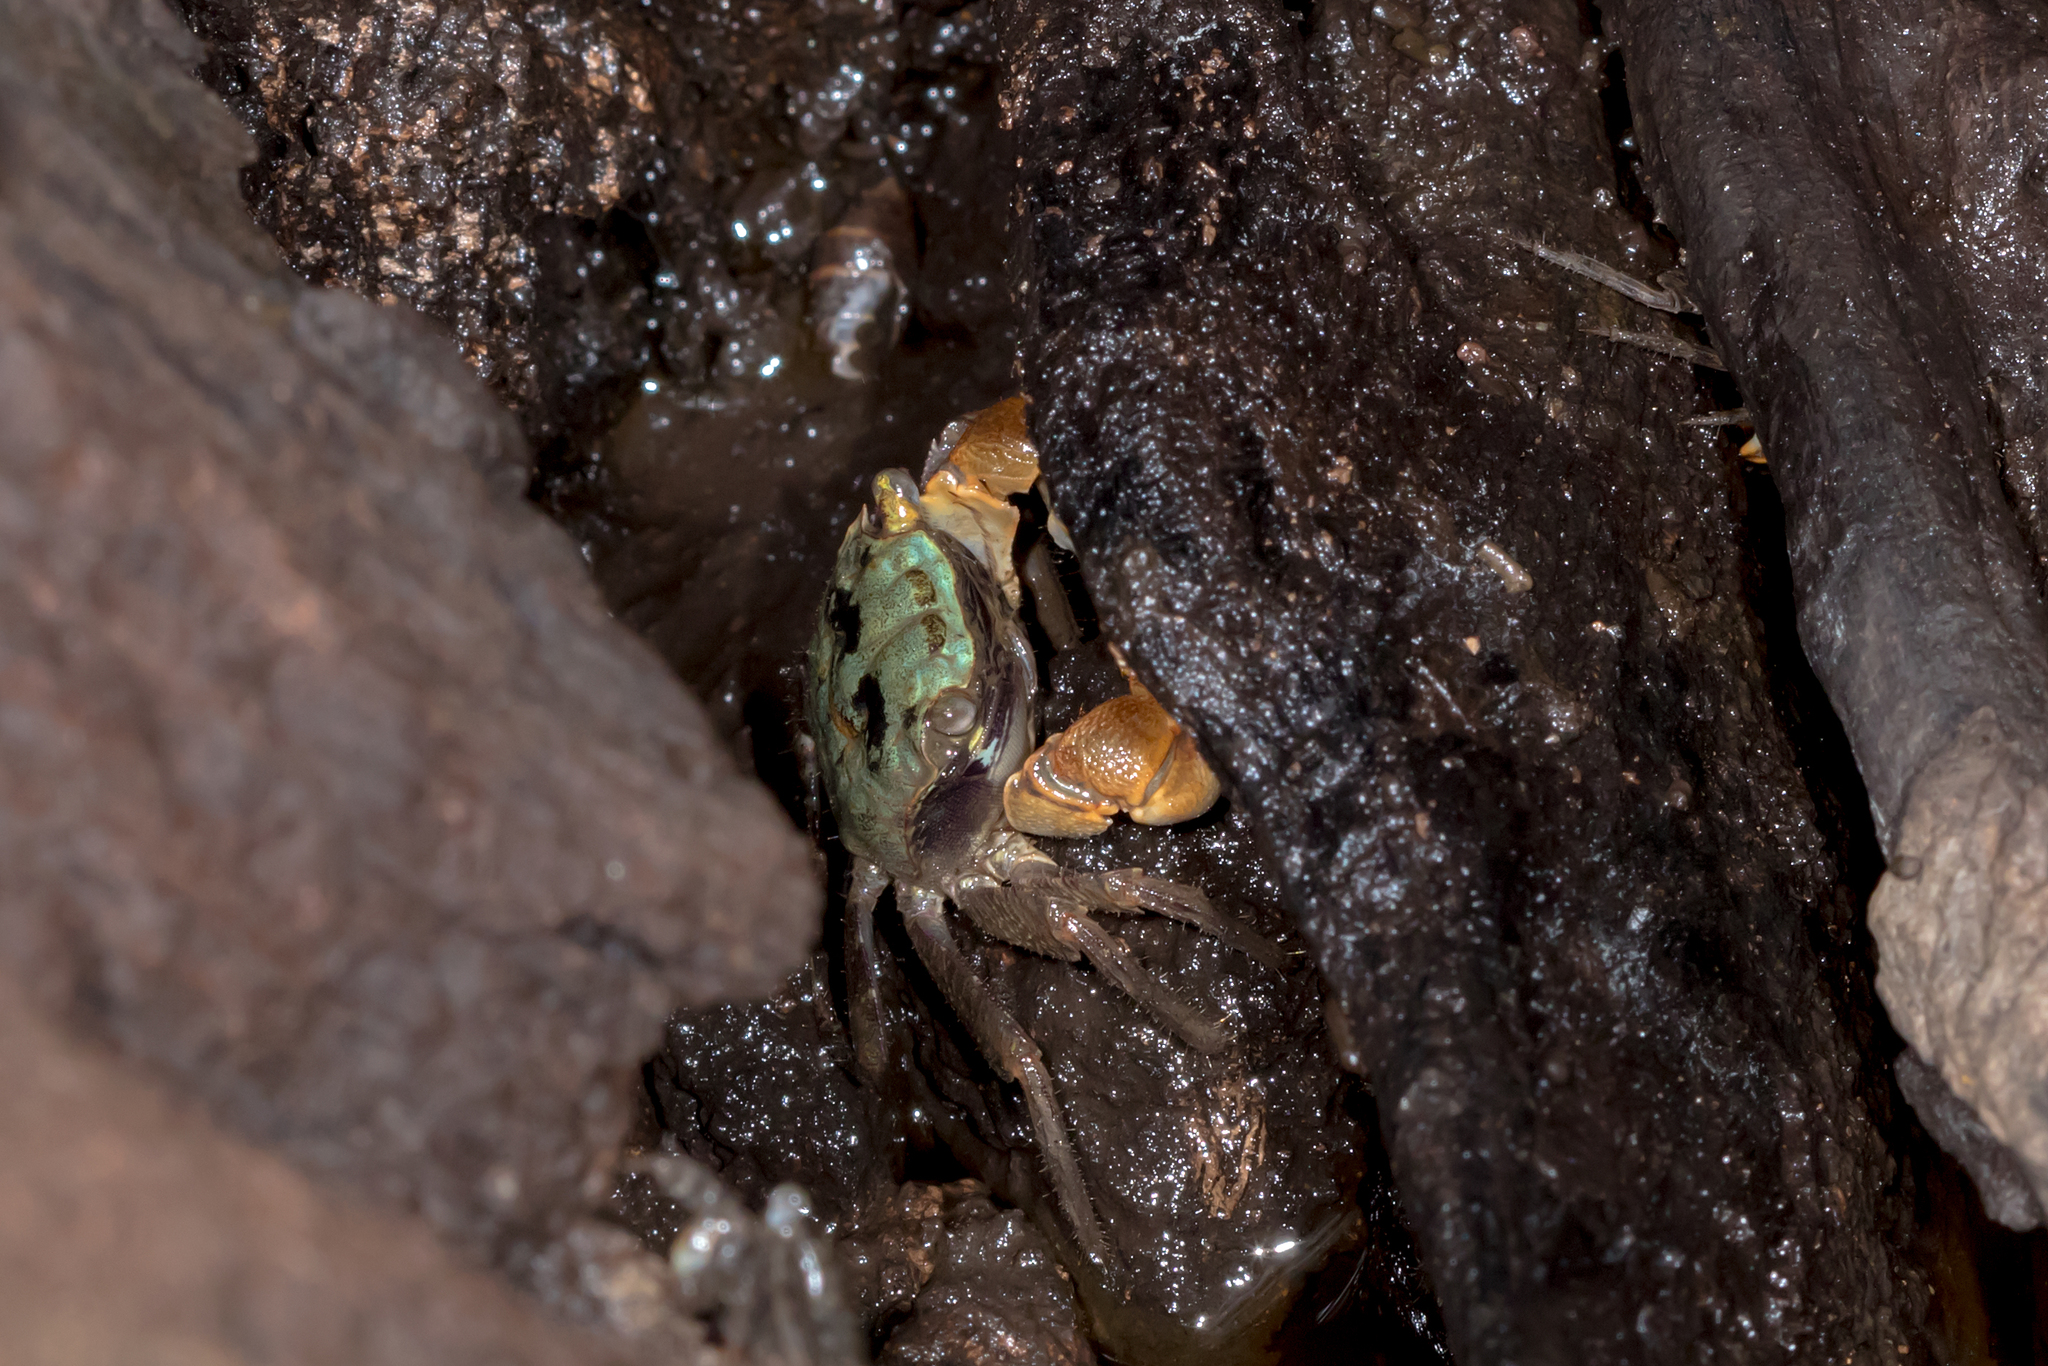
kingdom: Animalia
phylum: Arthropoda
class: Malacostraca
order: Decapoda
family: Sesarmidae
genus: Parasesarma
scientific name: Parasesarma erythodactylum
